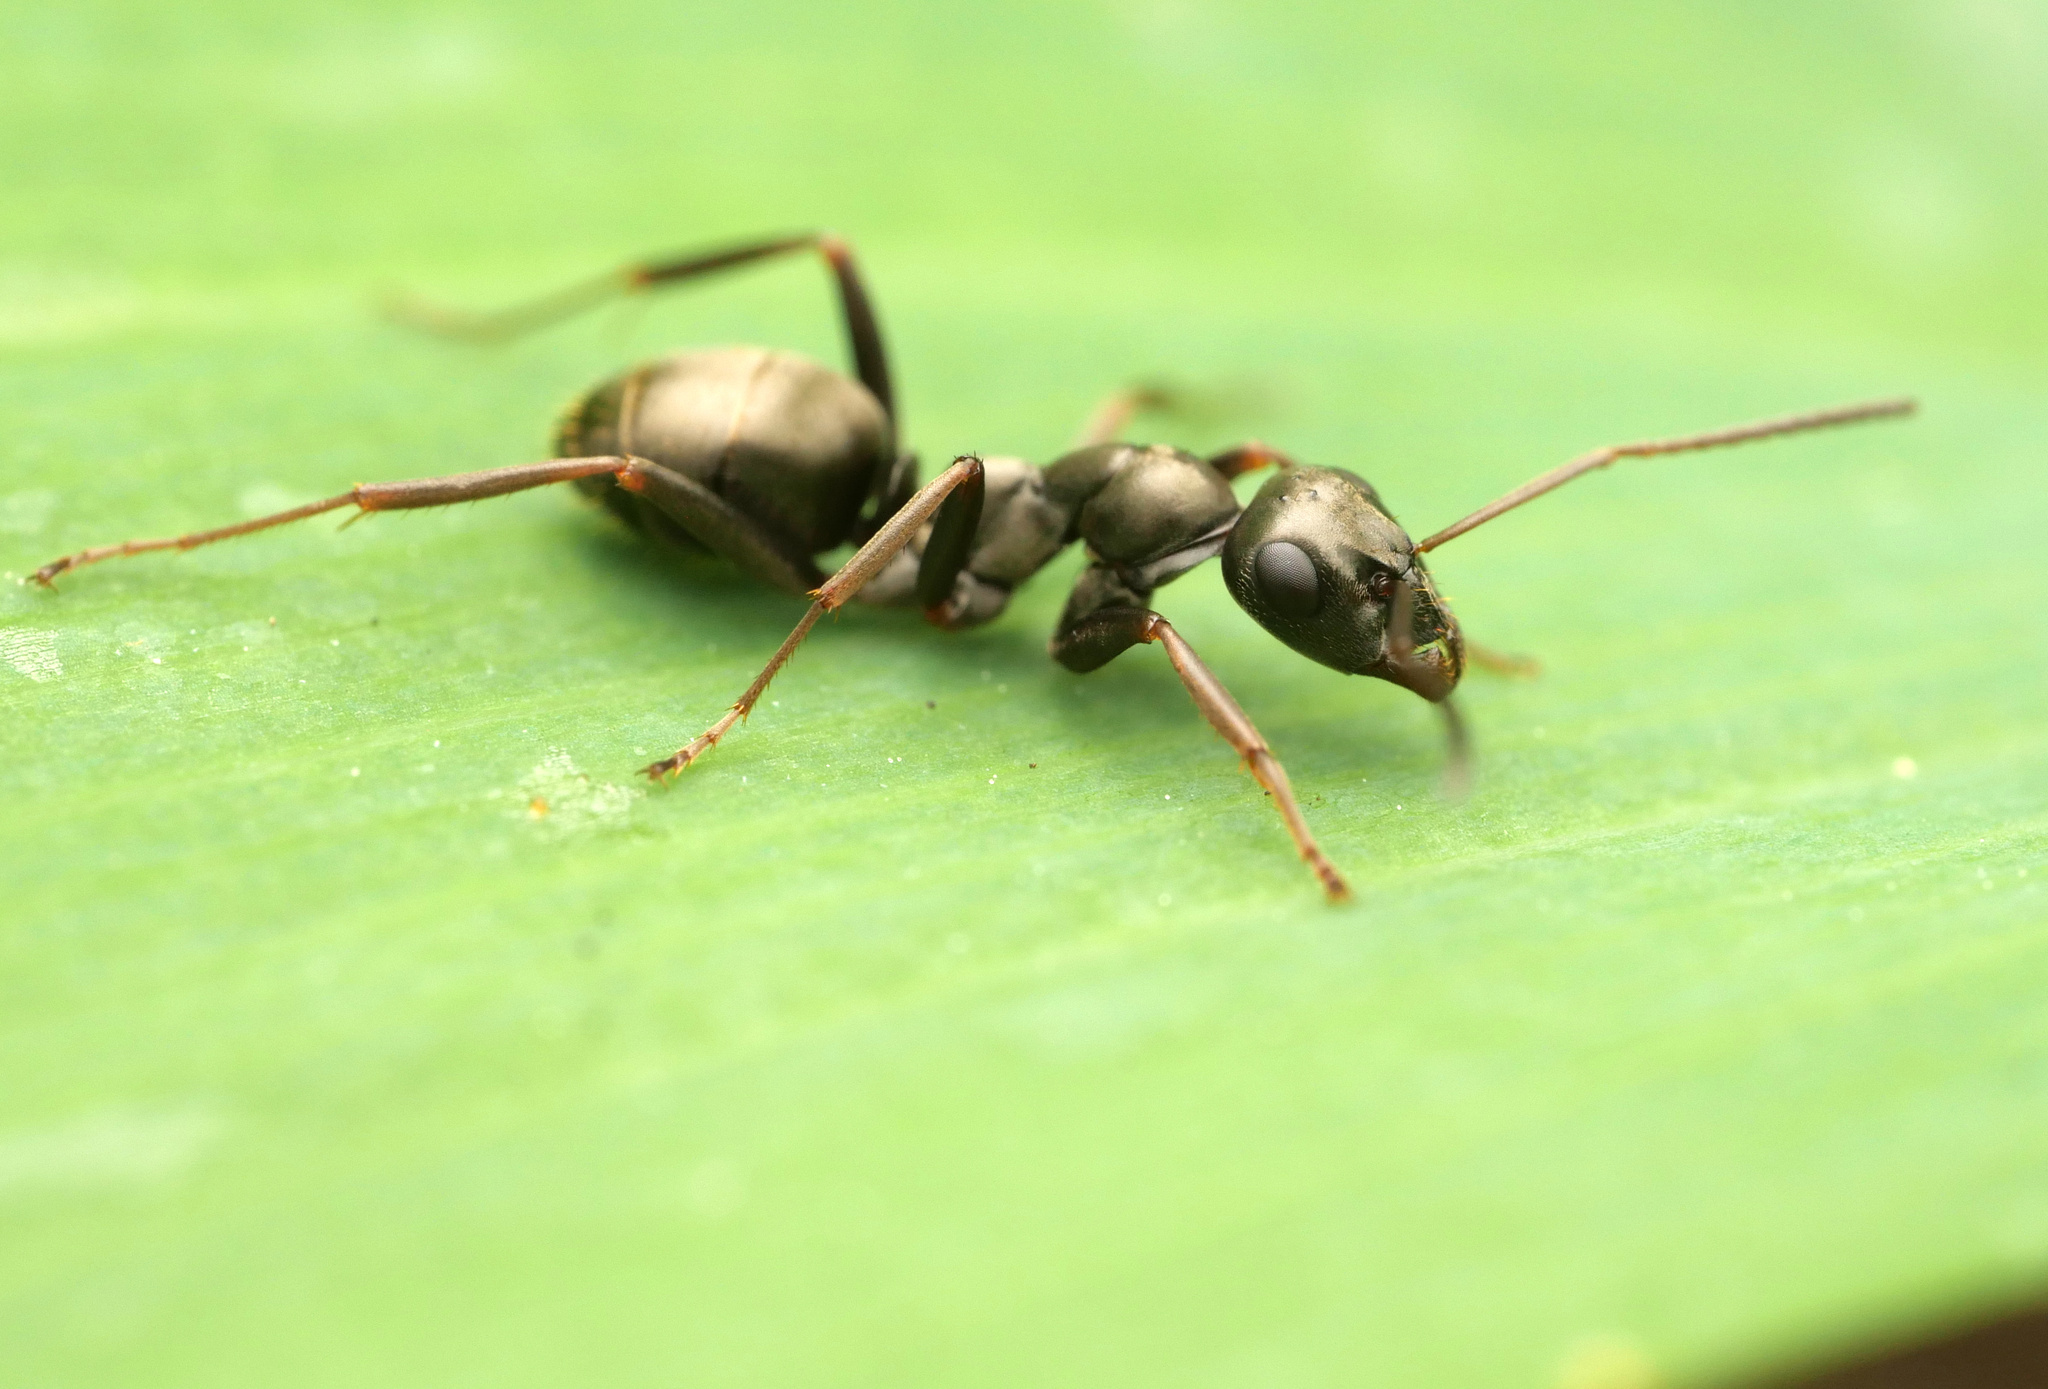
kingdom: Animalia
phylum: Arthropoda
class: Insecta
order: Hymenoptera
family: Formicidae
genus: Formica
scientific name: Formica fusca
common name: Silky ant
